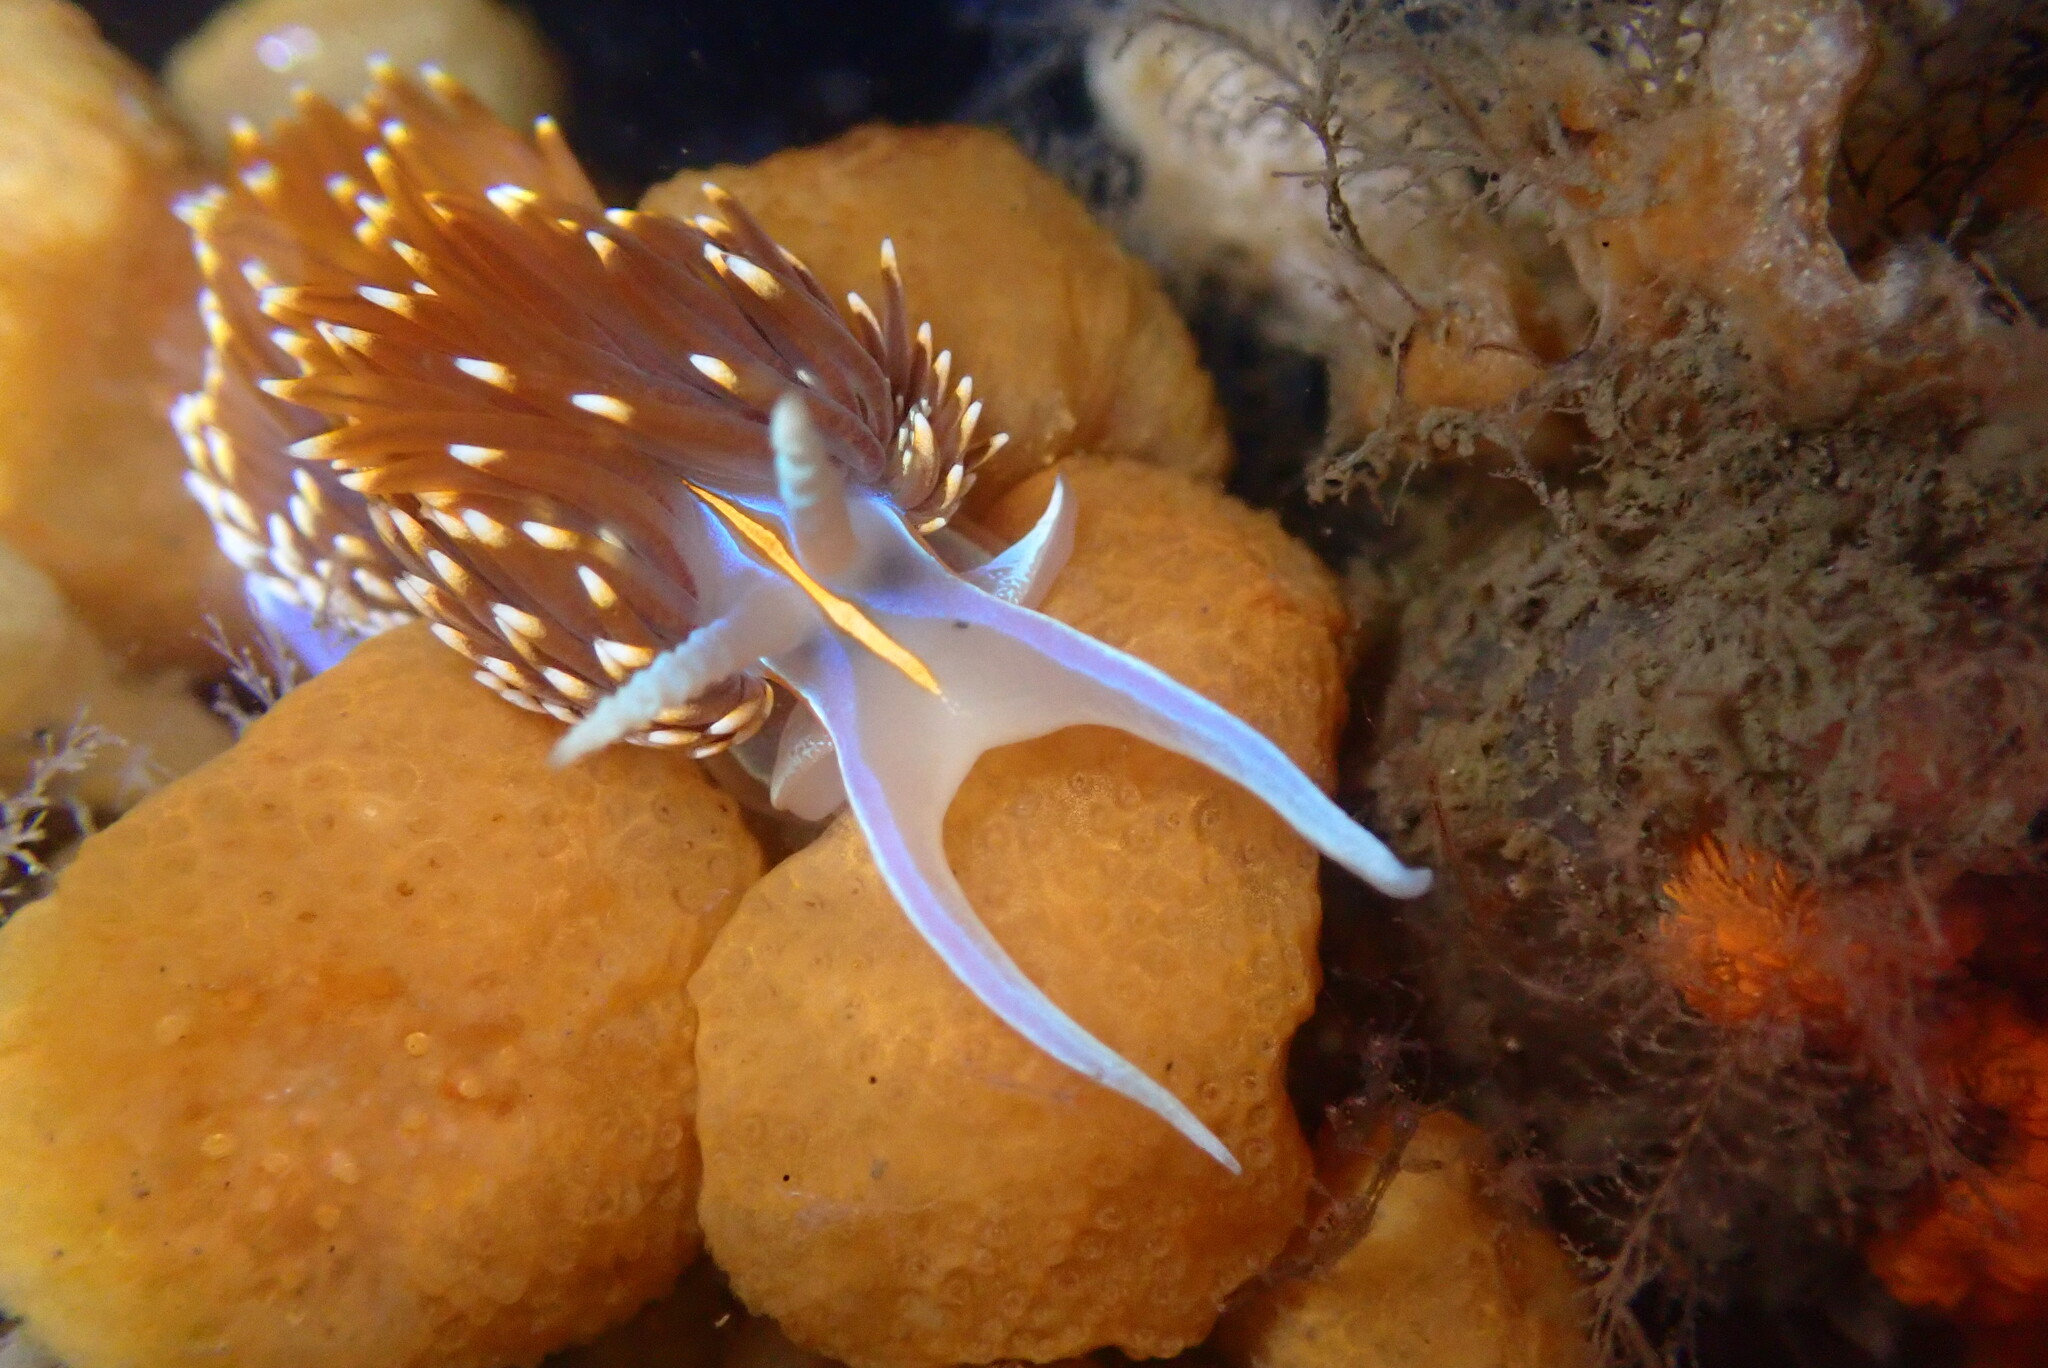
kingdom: Animalia
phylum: Mollusca
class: Gastropoda
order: Nudibranchia
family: Myrrhinidae
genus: Hermissenda
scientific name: Hermissenda opalescens
